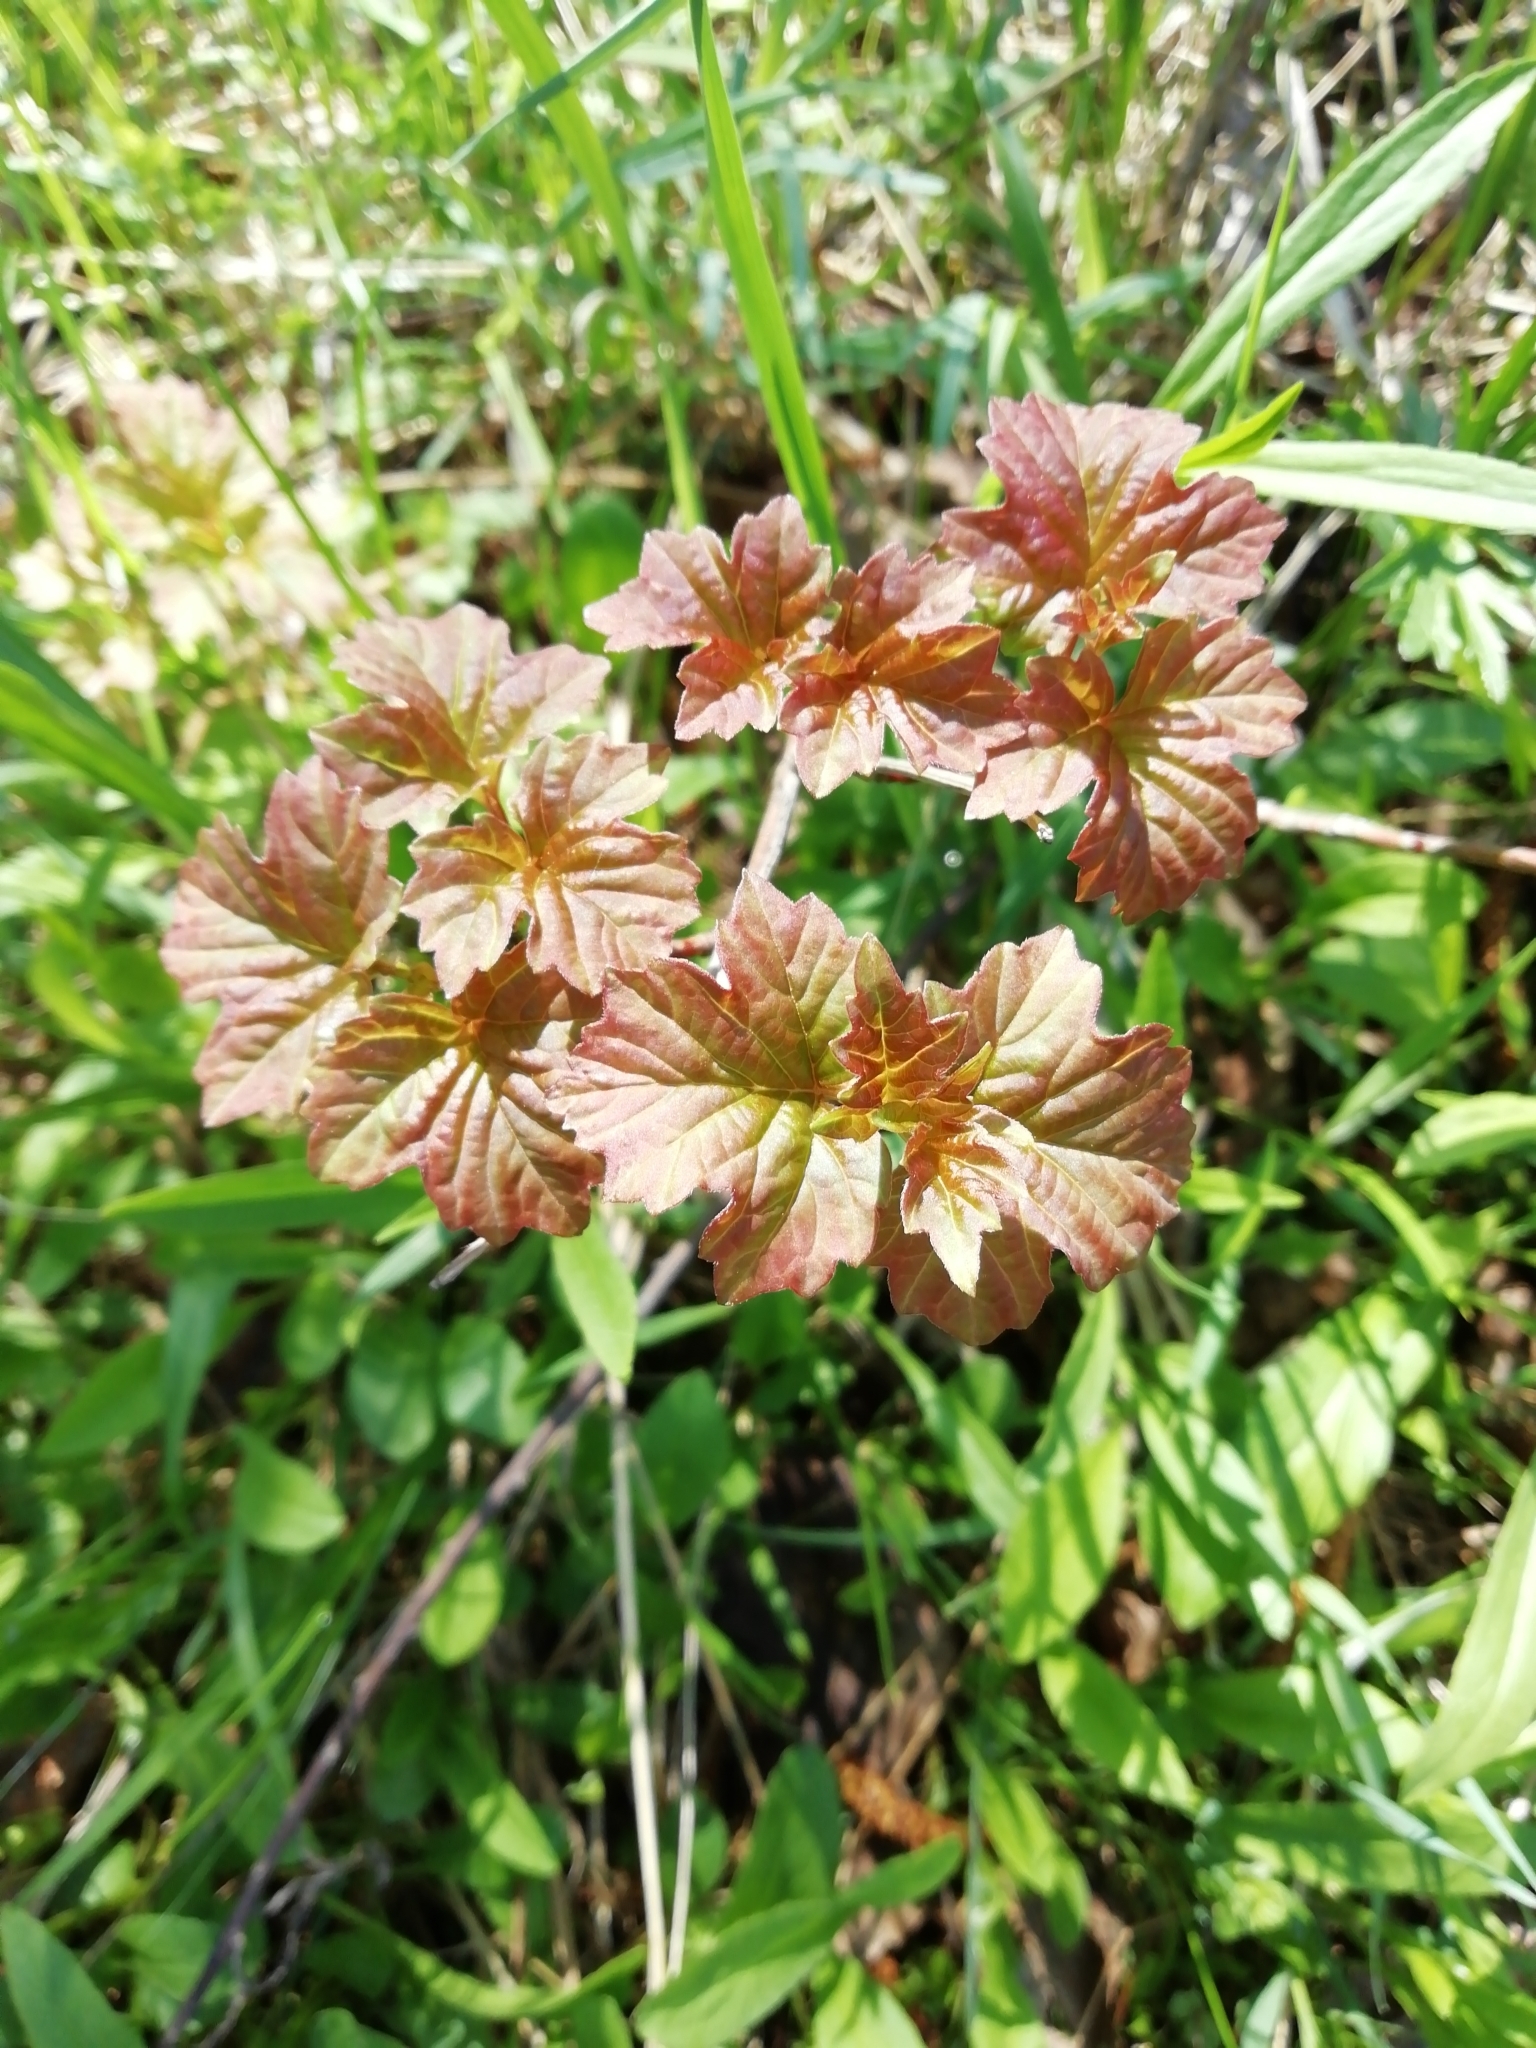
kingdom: Plantae
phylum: Tracheophyta
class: Magnoliopsida
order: Dipsacales
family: Viburnaceae
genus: Viburnum
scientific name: Viburnum opulus
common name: Guelder-rose
